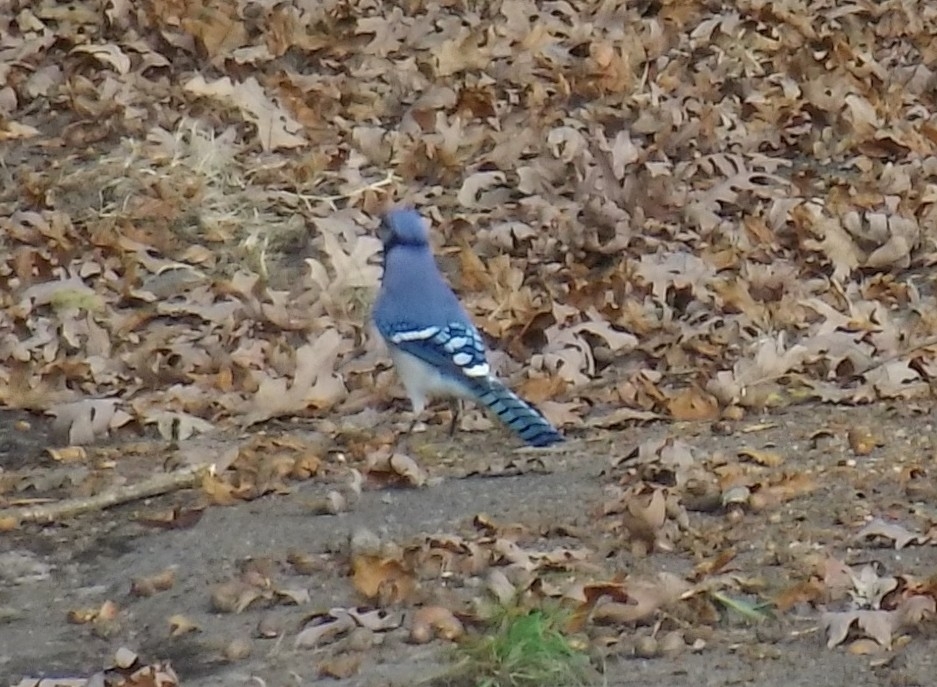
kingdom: Animalia
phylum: Chordata
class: Aves
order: Passeriformes
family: Corvidae
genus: Cyanocitta
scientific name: Cyanocitta cristata
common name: Blue jay
